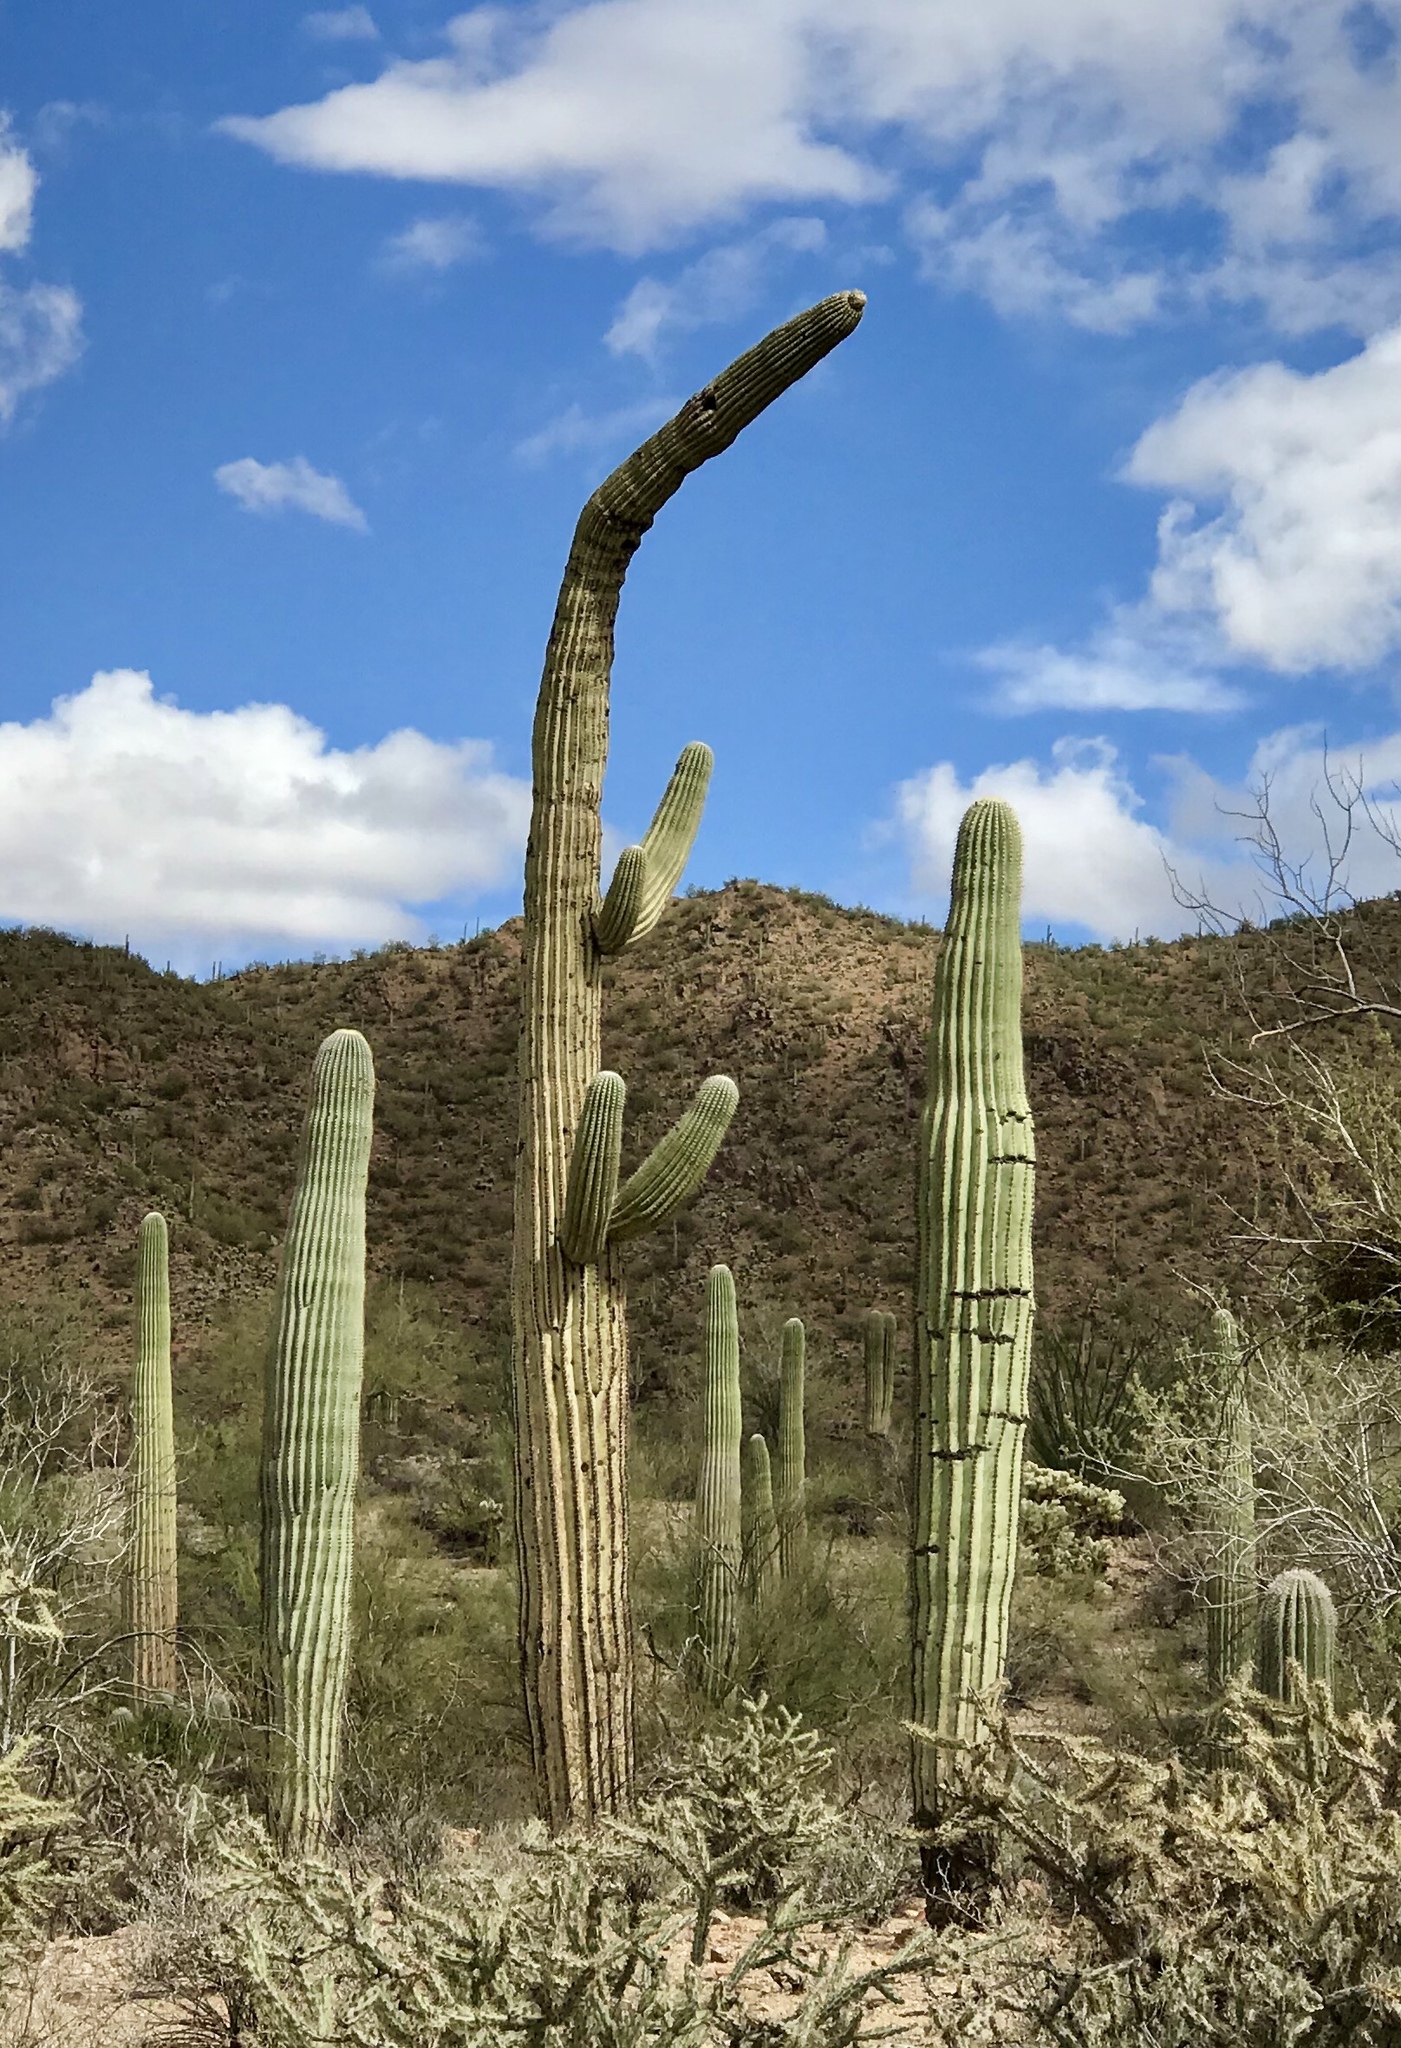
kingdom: Plantae
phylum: Tracheophyta
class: Magnoliopsida
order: Caryophyllales
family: Cactaceae
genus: Carnegiea
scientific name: Carnegiea gigantea
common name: Saguaro
